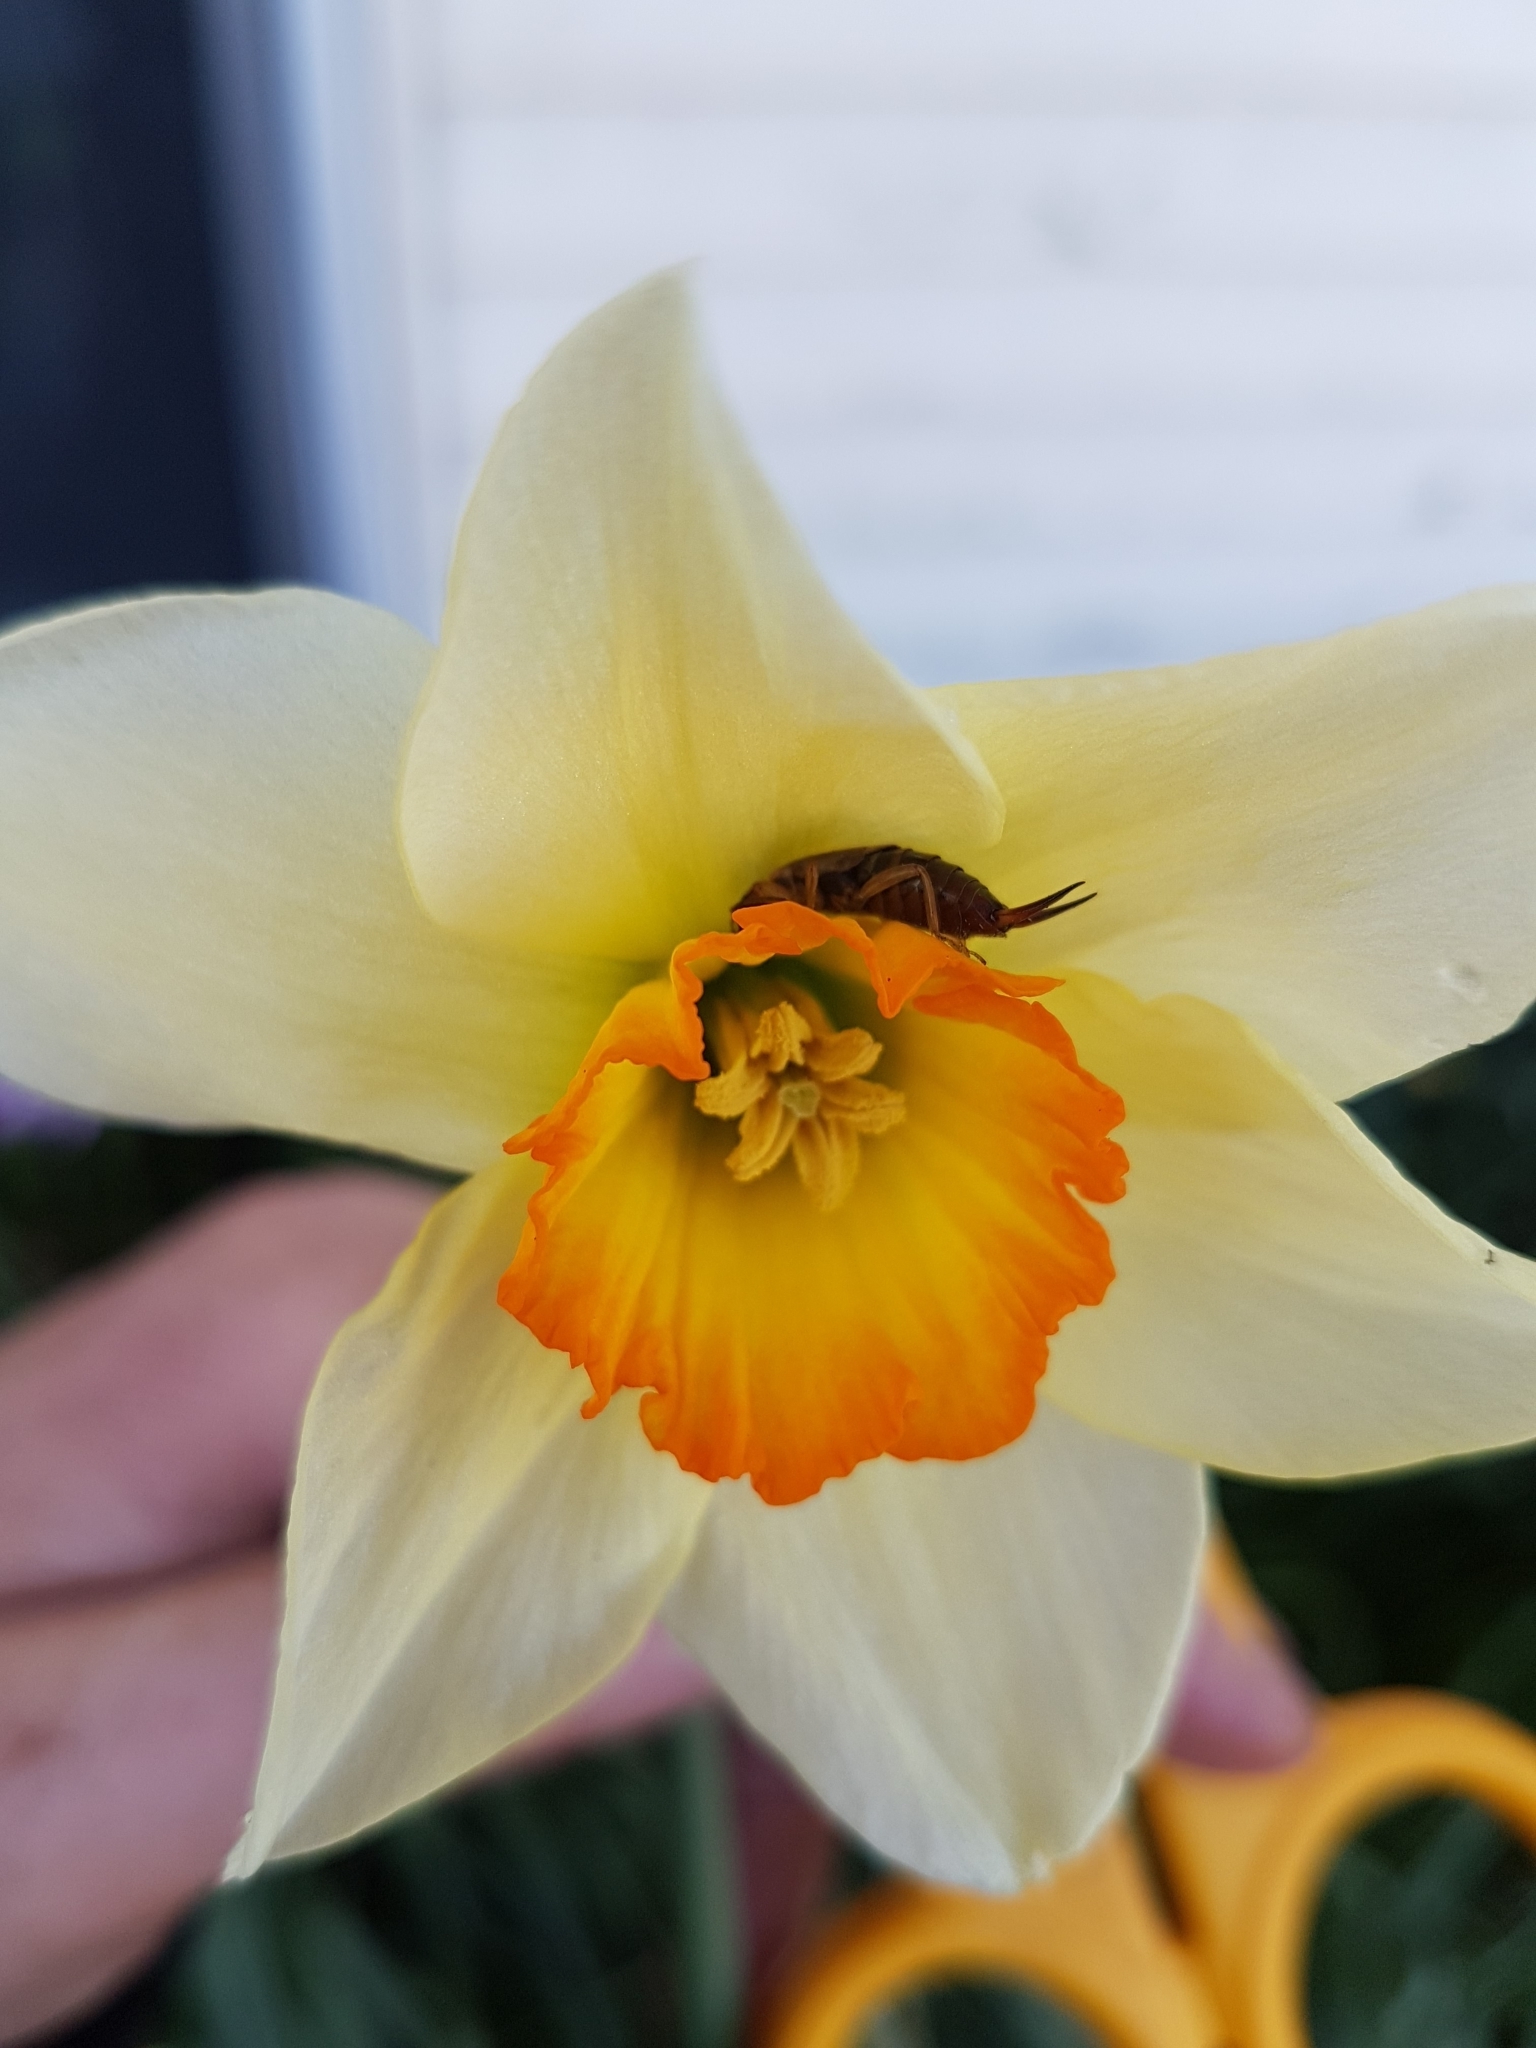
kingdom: Animalia
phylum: Arthropoda
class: Insecta
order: Dermaptera
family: Forficulidae
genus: Forficula
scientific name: Forficula
